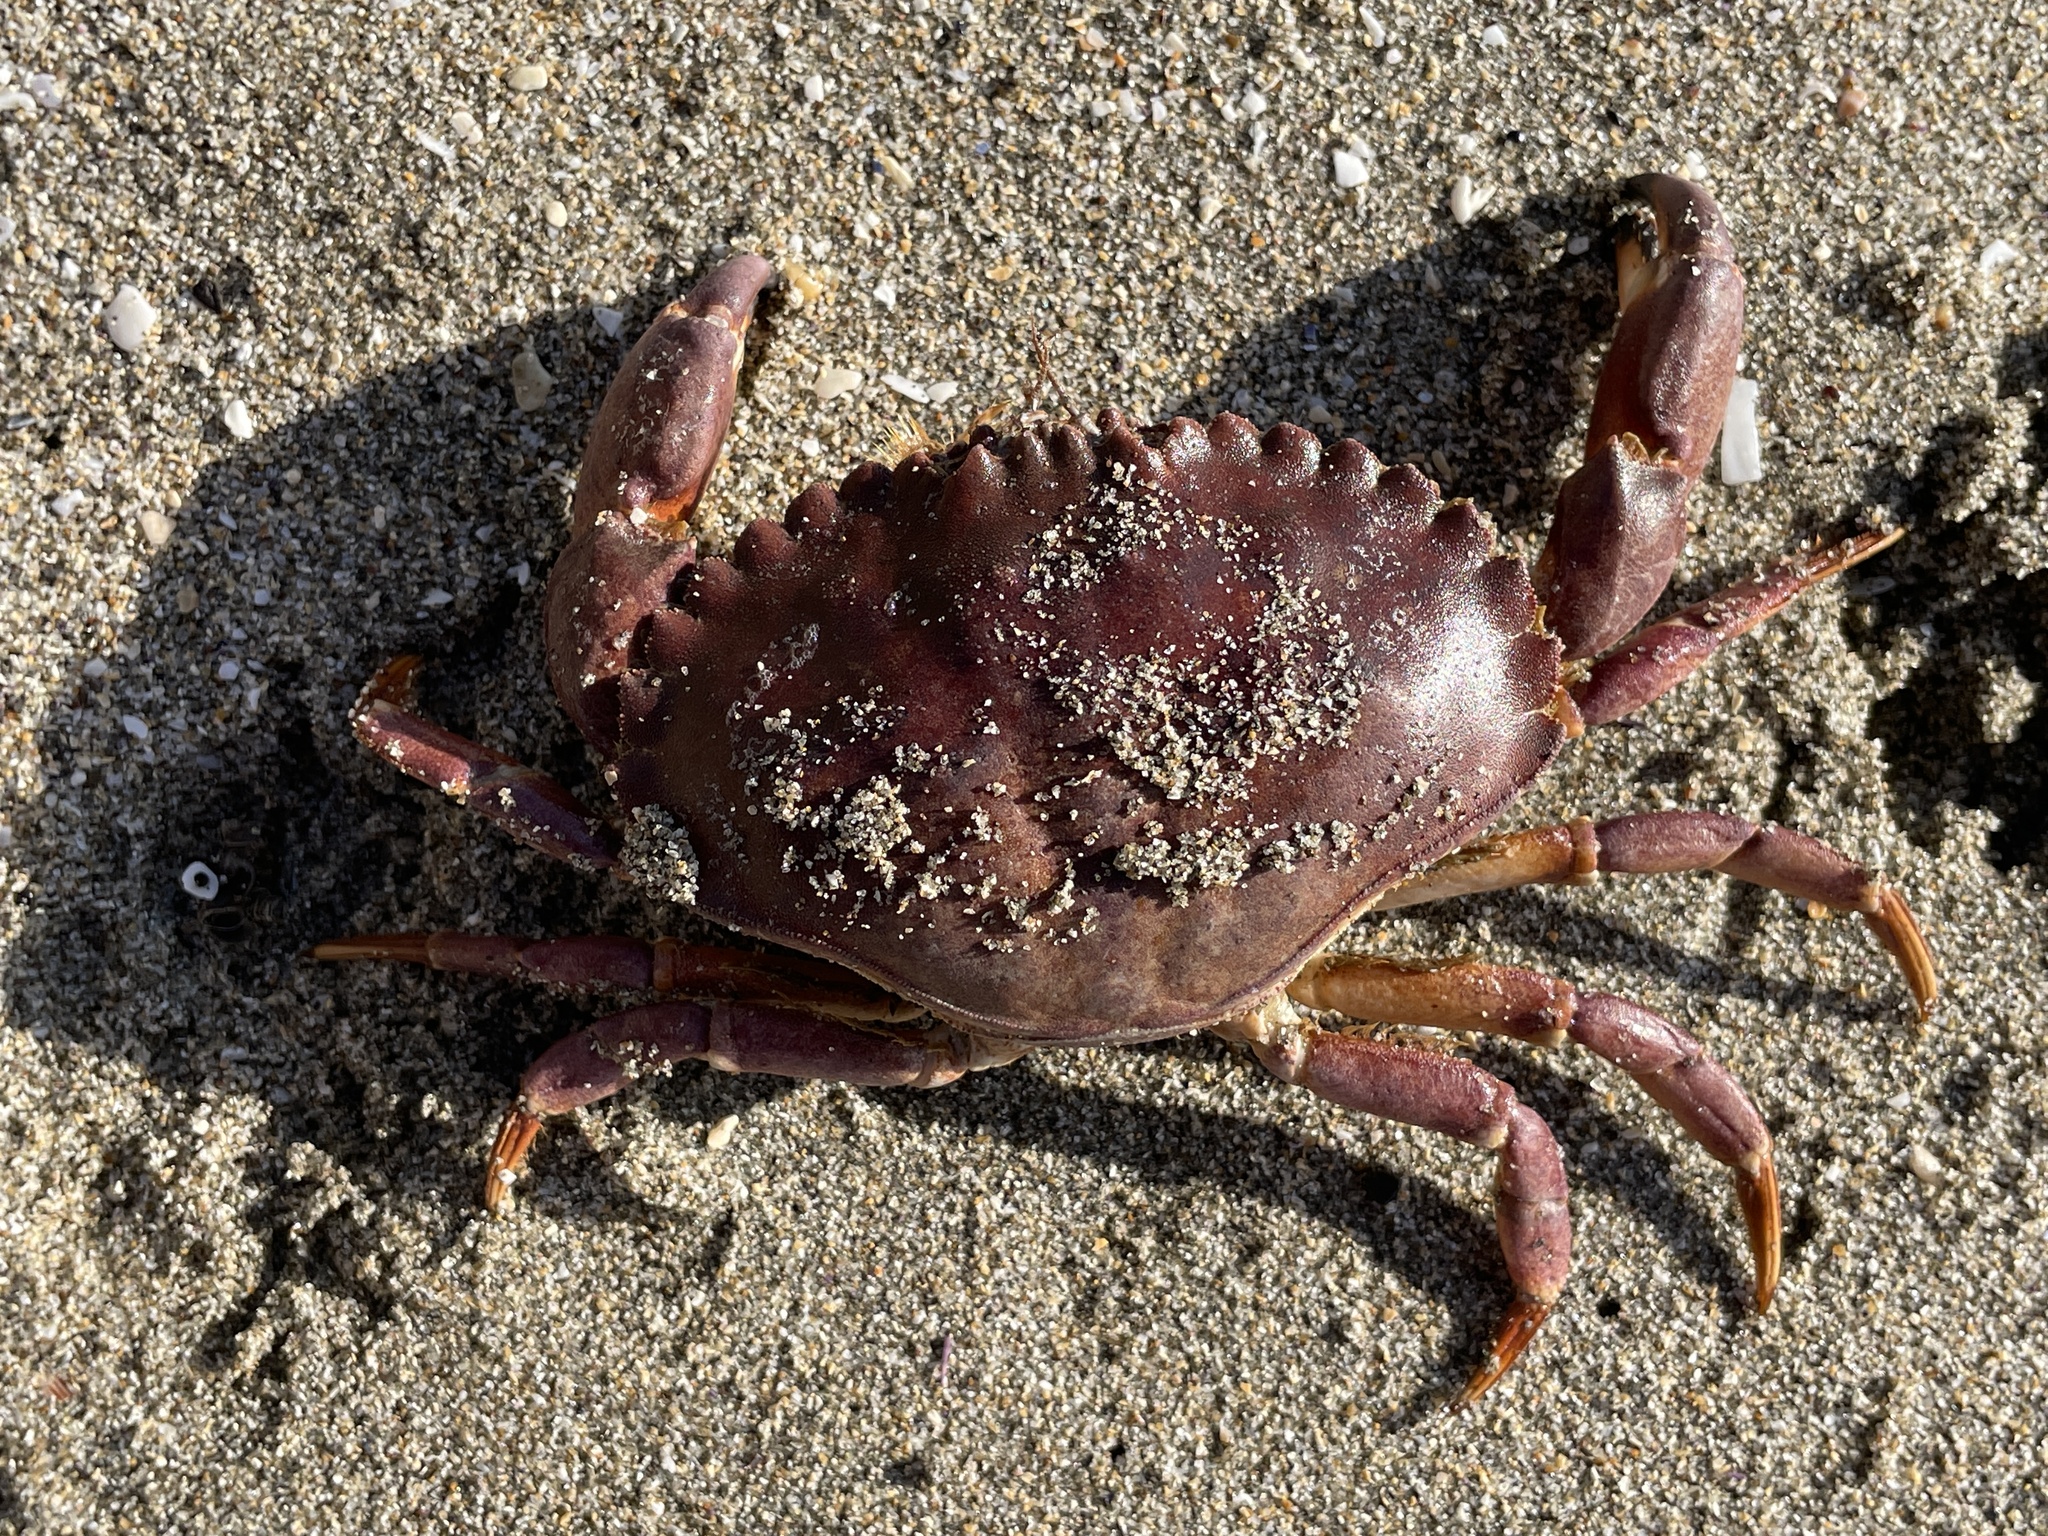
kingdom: Animalia
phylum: Arthropoda
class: Malacostraca
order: Decapoda
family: Cancridae
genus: Metacarcinus
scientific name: Metacarcinus anthonyi
